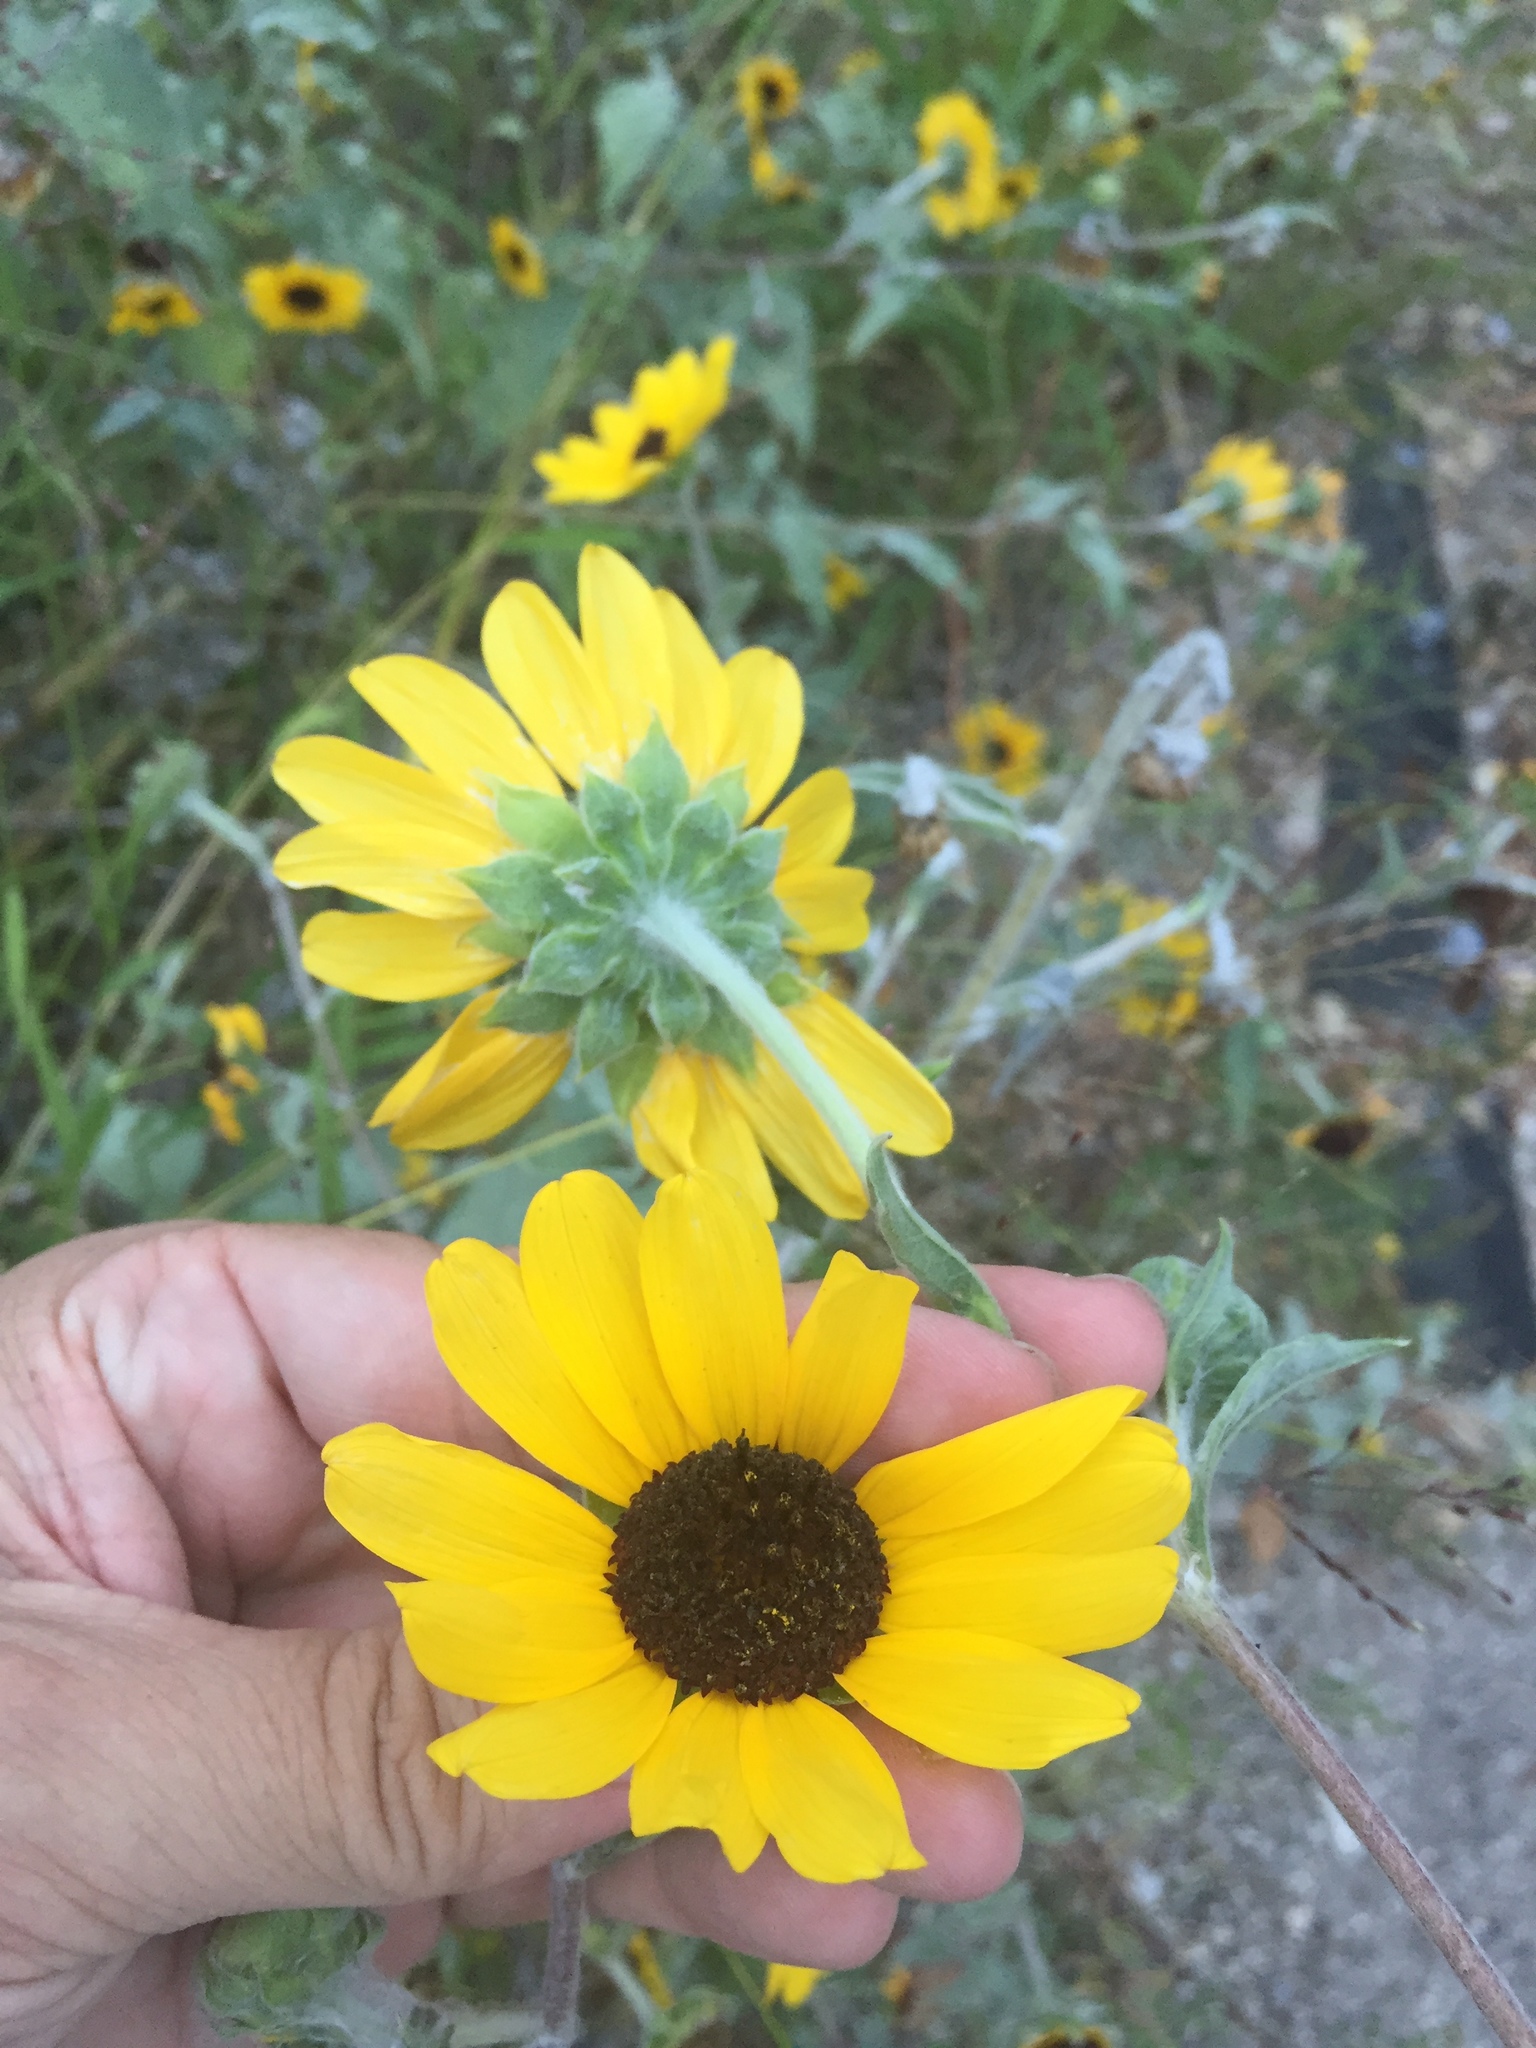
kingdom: Plantae
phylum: Tracheophyta
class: Magnoliopsida
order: Asterales
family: Asteraceae
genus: Helianthus
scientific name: Helianthus argophyllus
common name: Silverleaf sunflower
